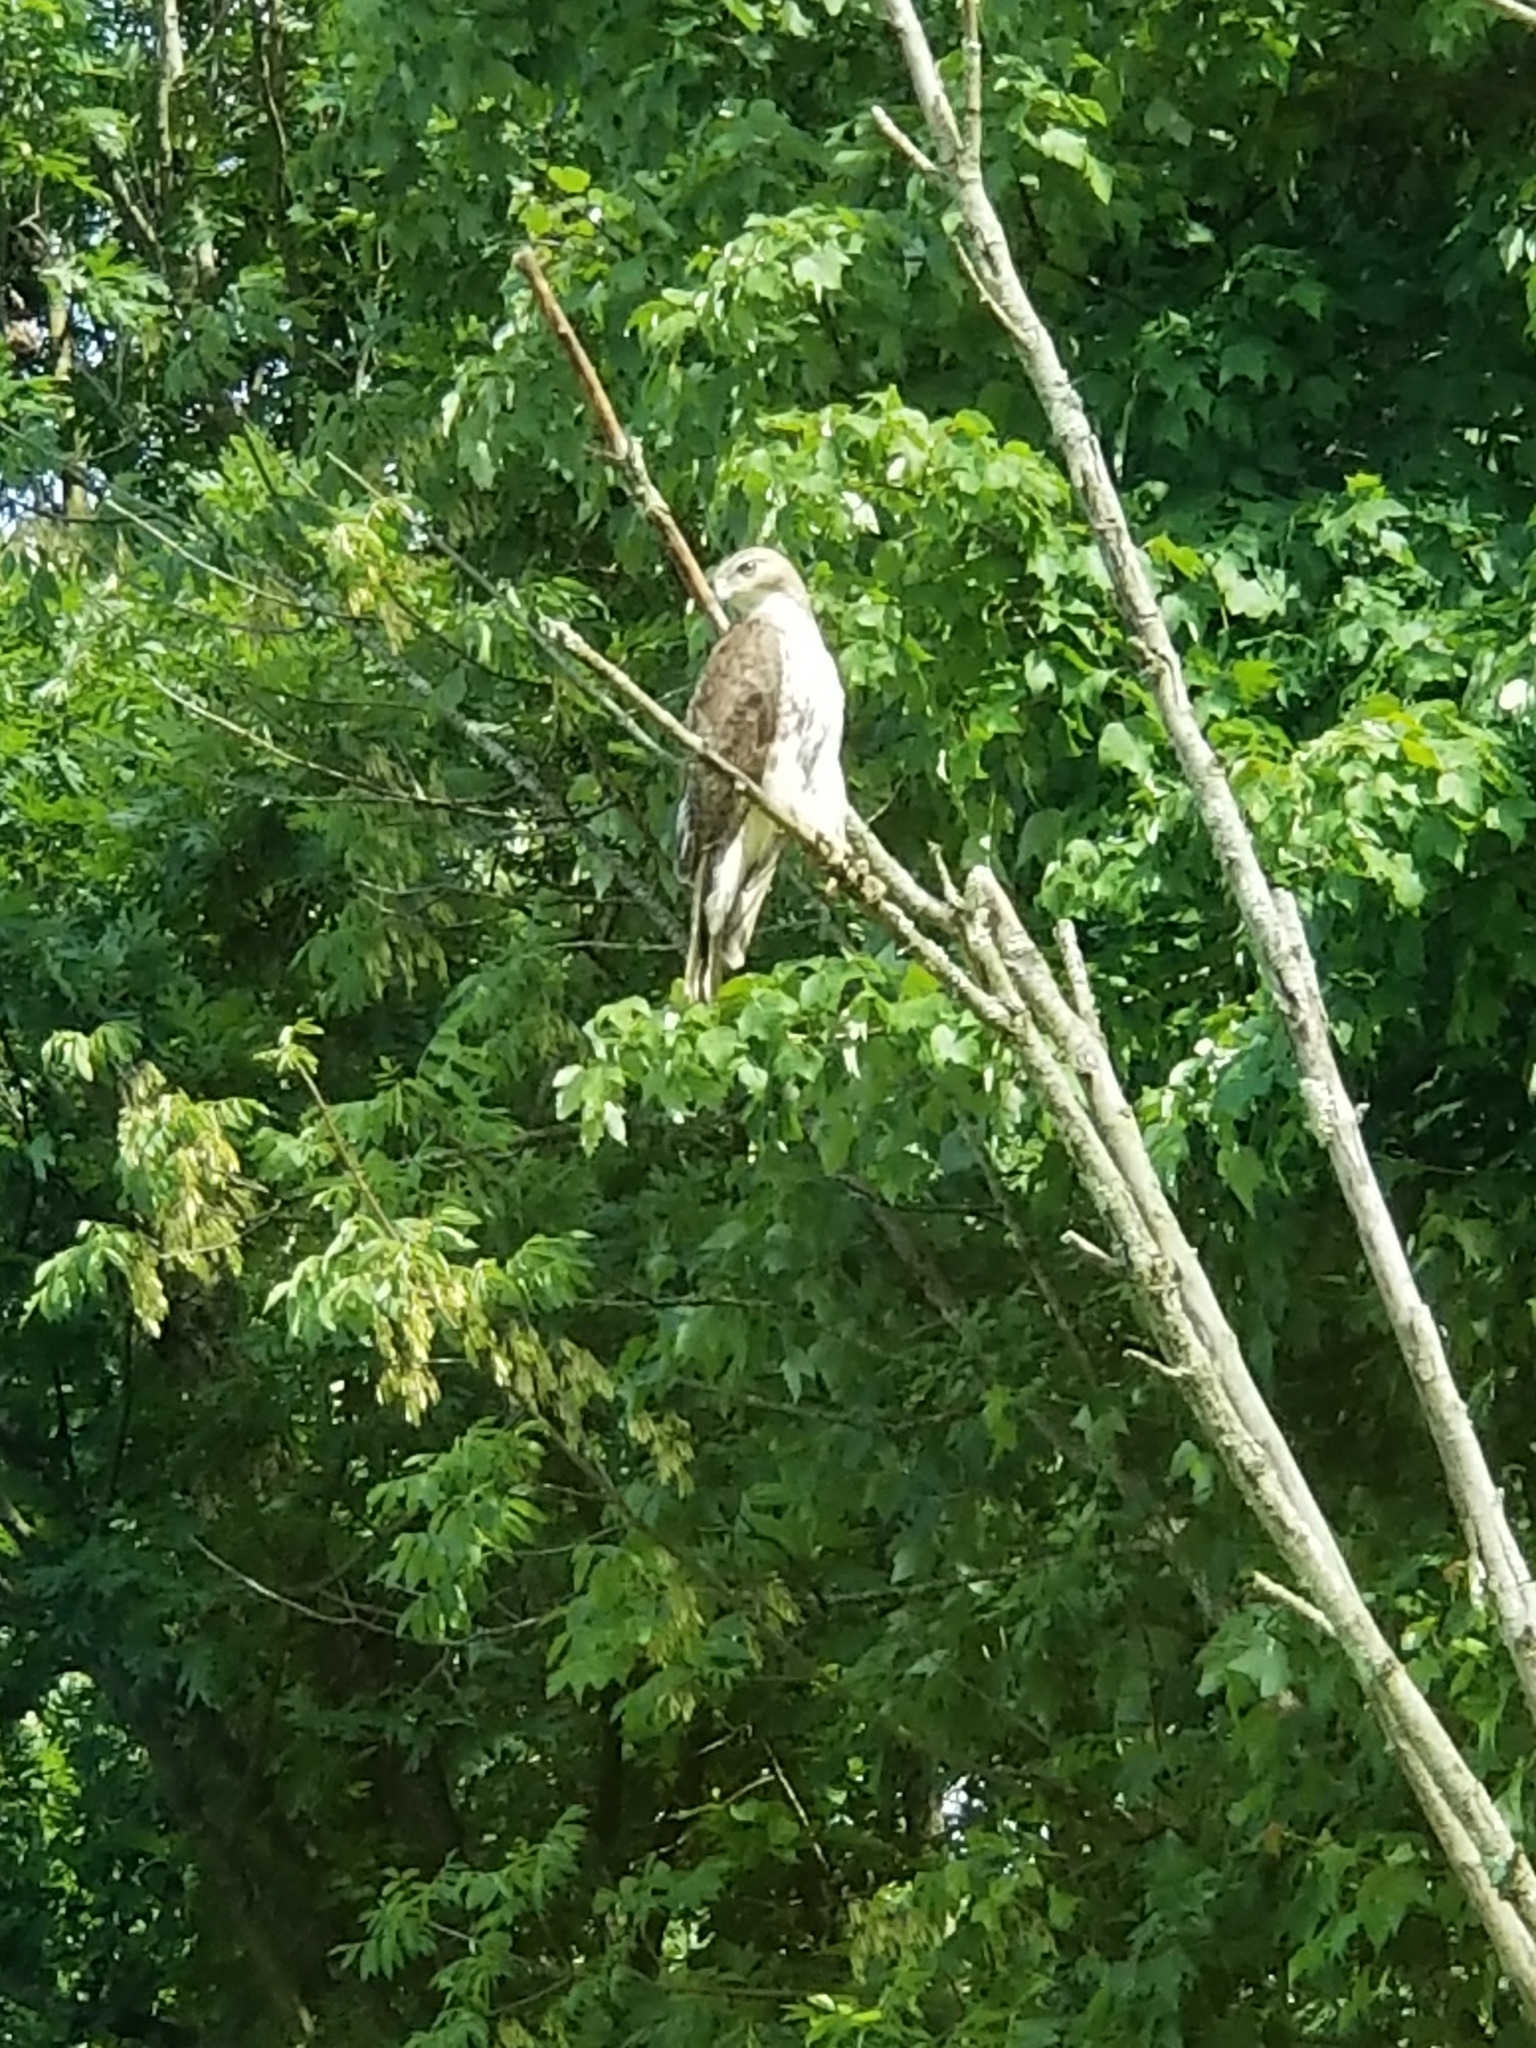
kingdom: Animalia
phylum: Chordata
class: Aves
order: Accipitriformes
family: Accipitridae
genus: Buteo
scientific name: Buteo jamaicensis
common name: Red-tailed hawk
